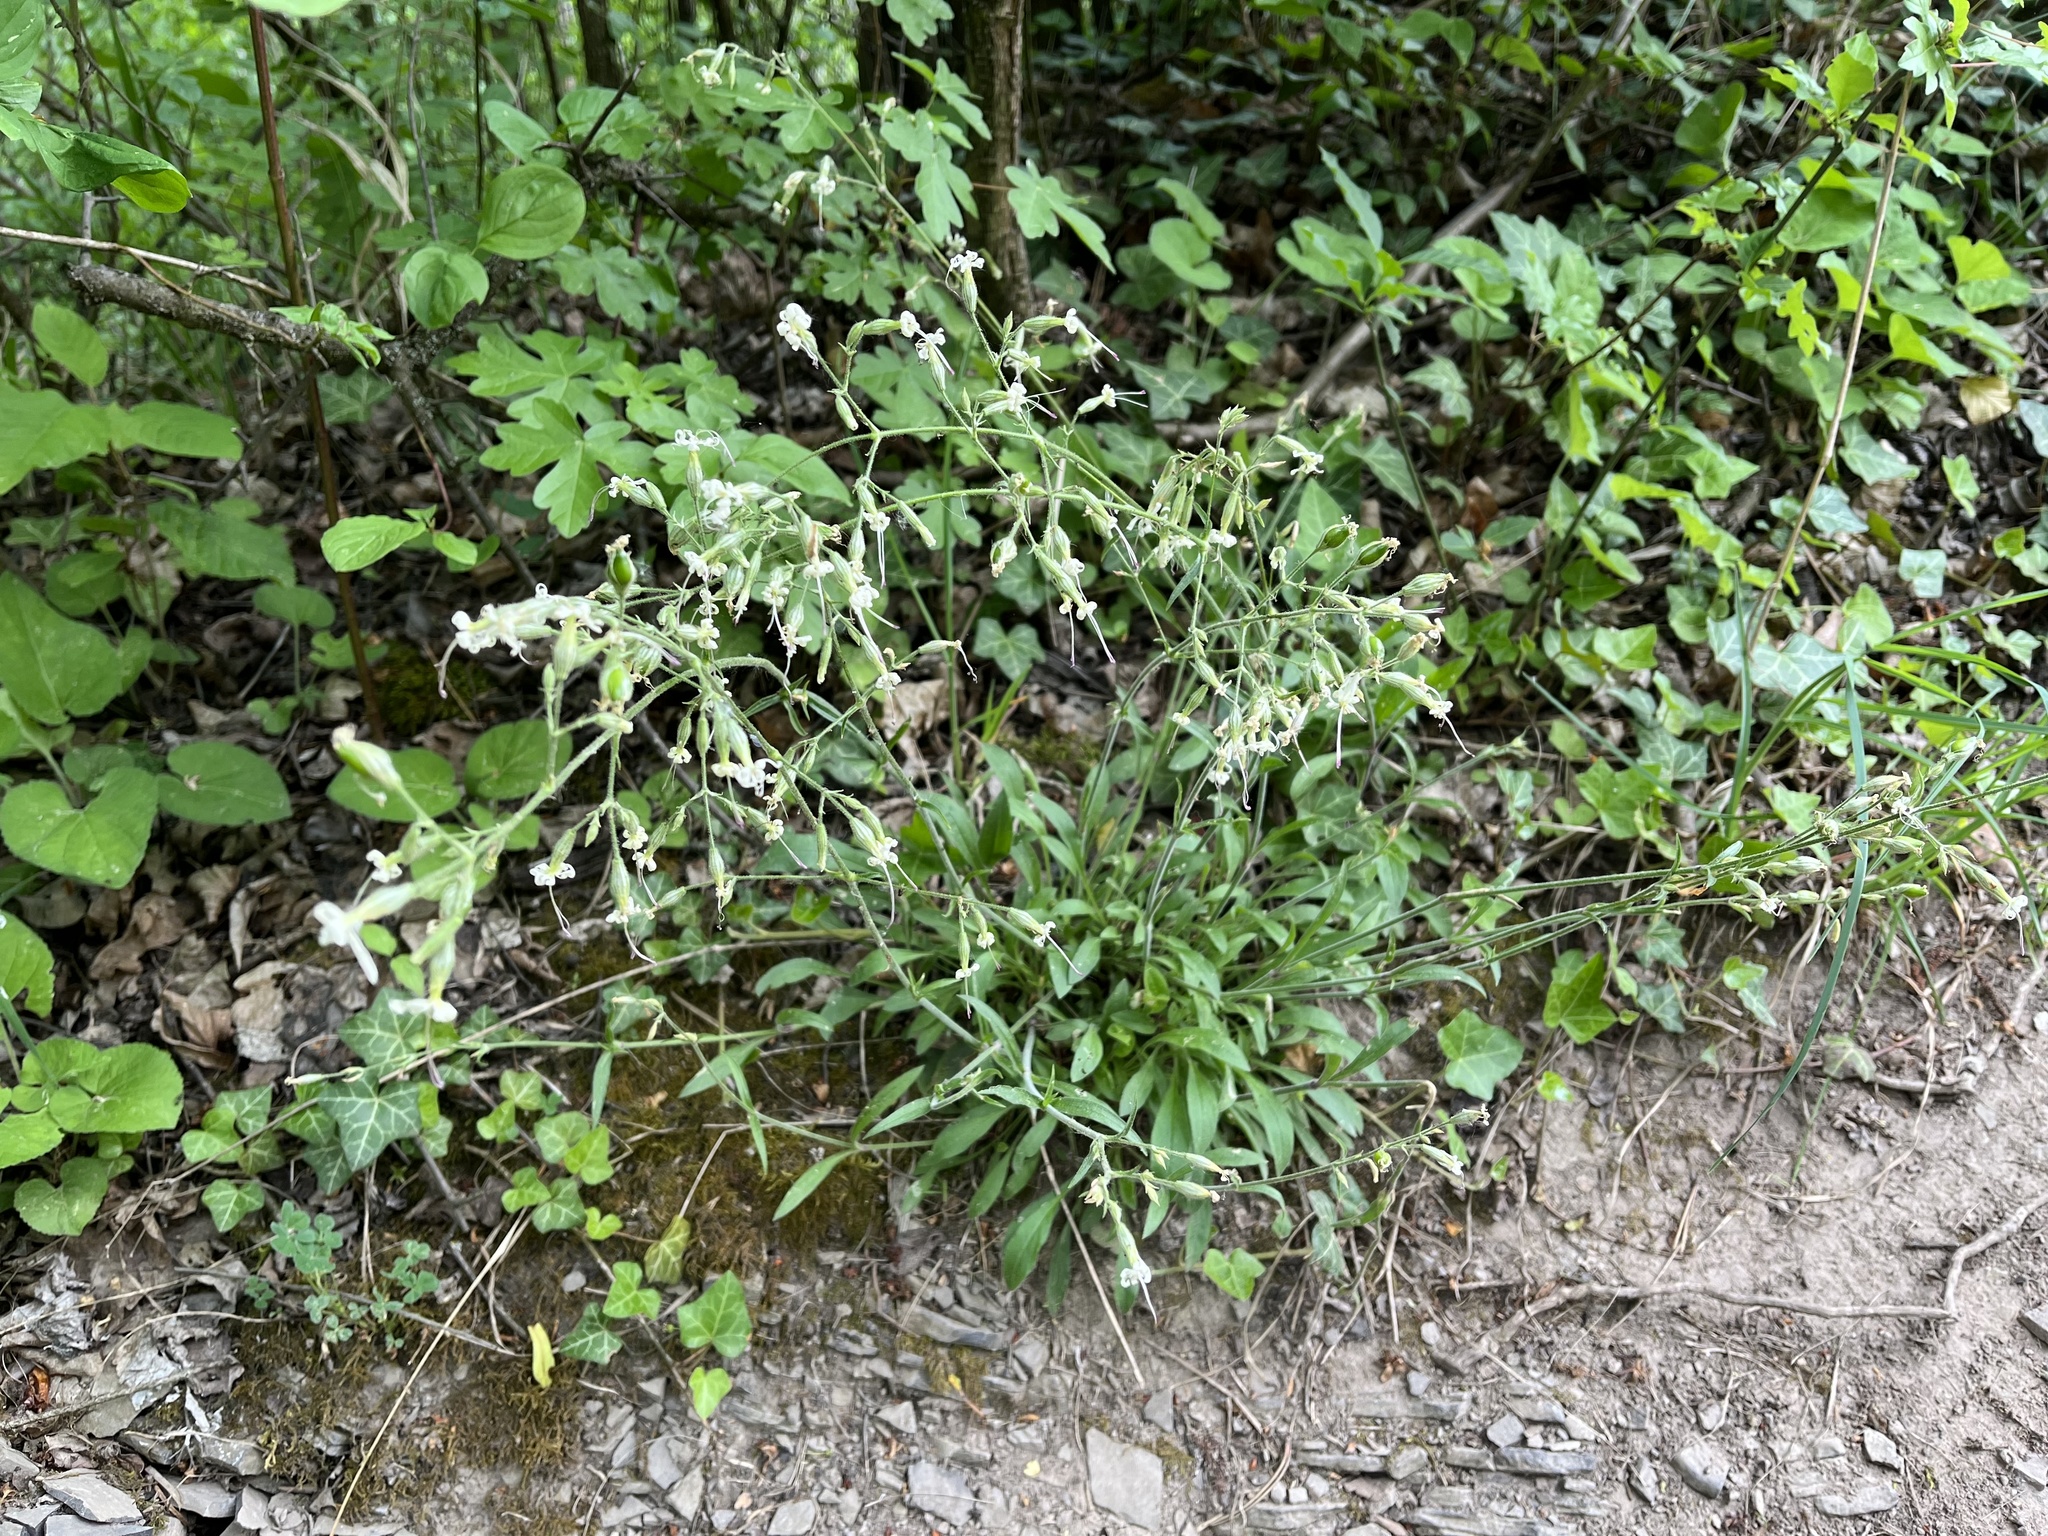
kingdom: Plantae
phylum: Tracheophyta
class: Magnoliopsida
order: Caryophyllales
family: Caryophyllaceae
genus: Silene
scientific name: Silene nutans
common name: Nottingham catchfly
